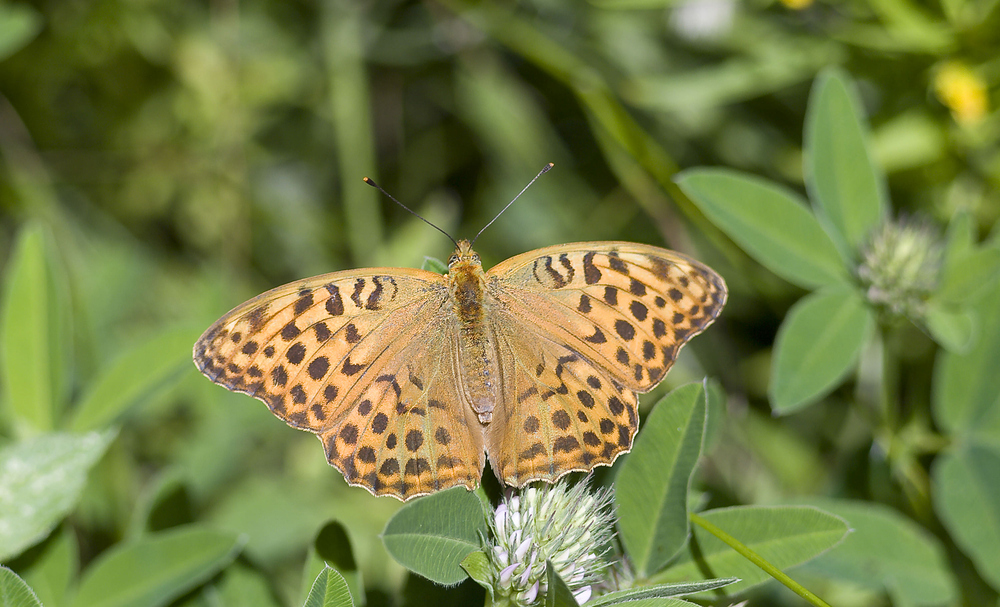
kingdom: Animalia
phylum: Arthropoda
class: Insecta
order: Lepidoptera
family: Nymphalidae
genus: Argynnis
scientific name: Argynnis paphia
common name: Silver-washed fritillary
